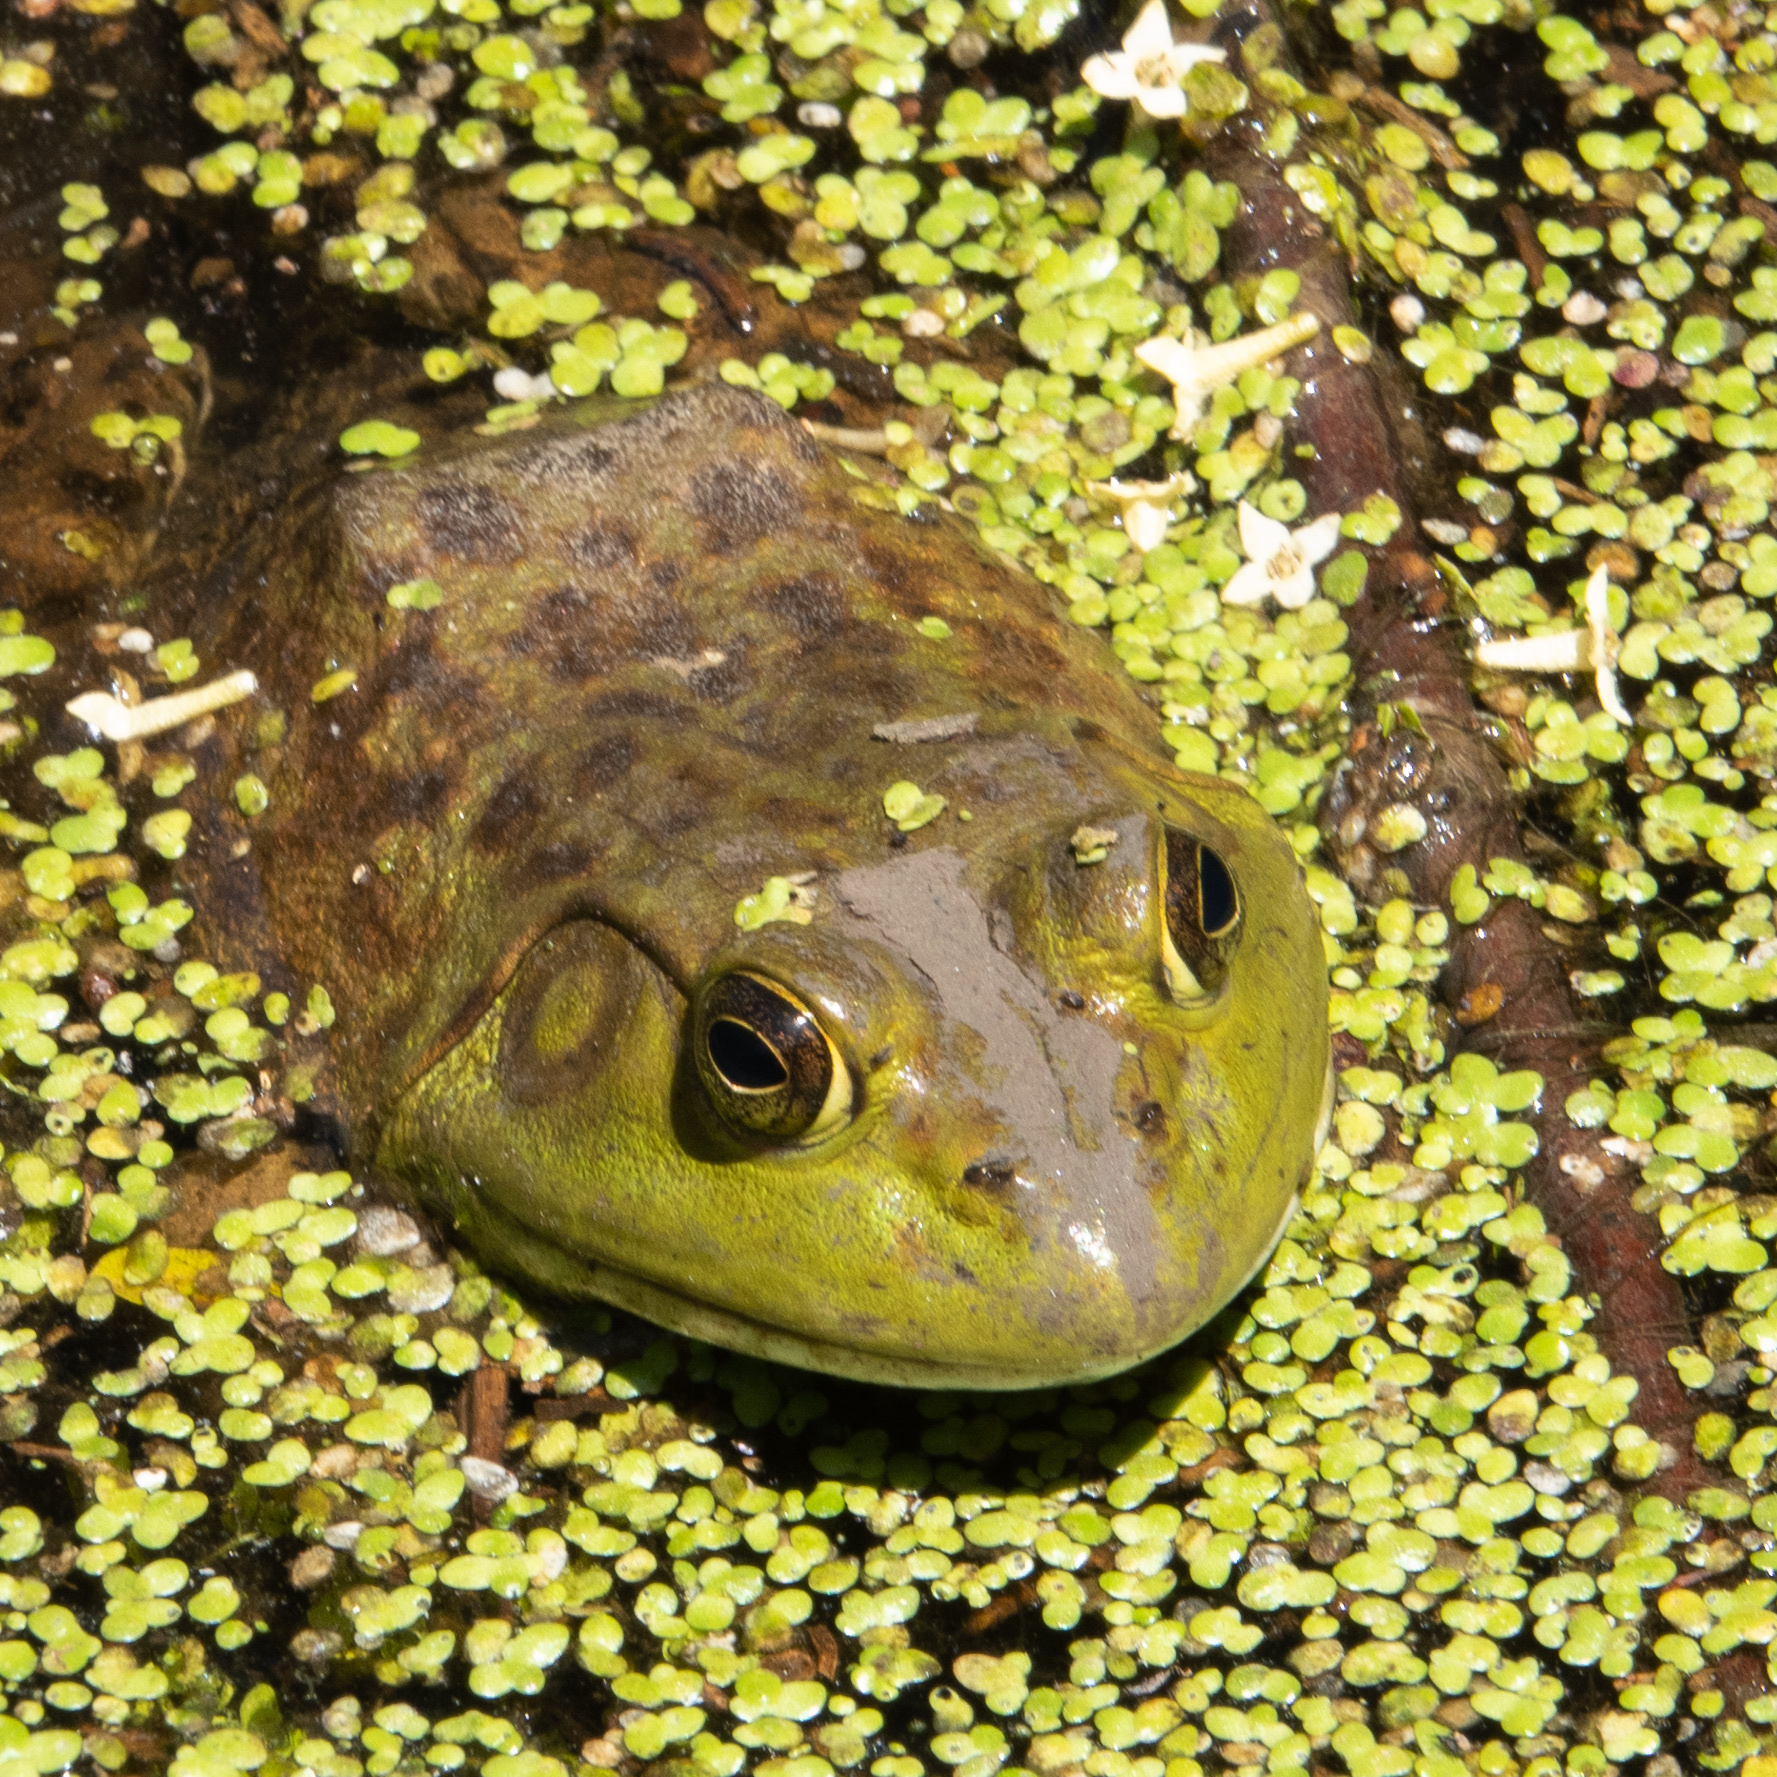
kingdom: Animalia
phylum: Chordata
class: Amphibia
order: Anura
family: Ranidae
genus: Lithobates
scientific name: Lithobates catesbeianus
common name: American bullfrog
